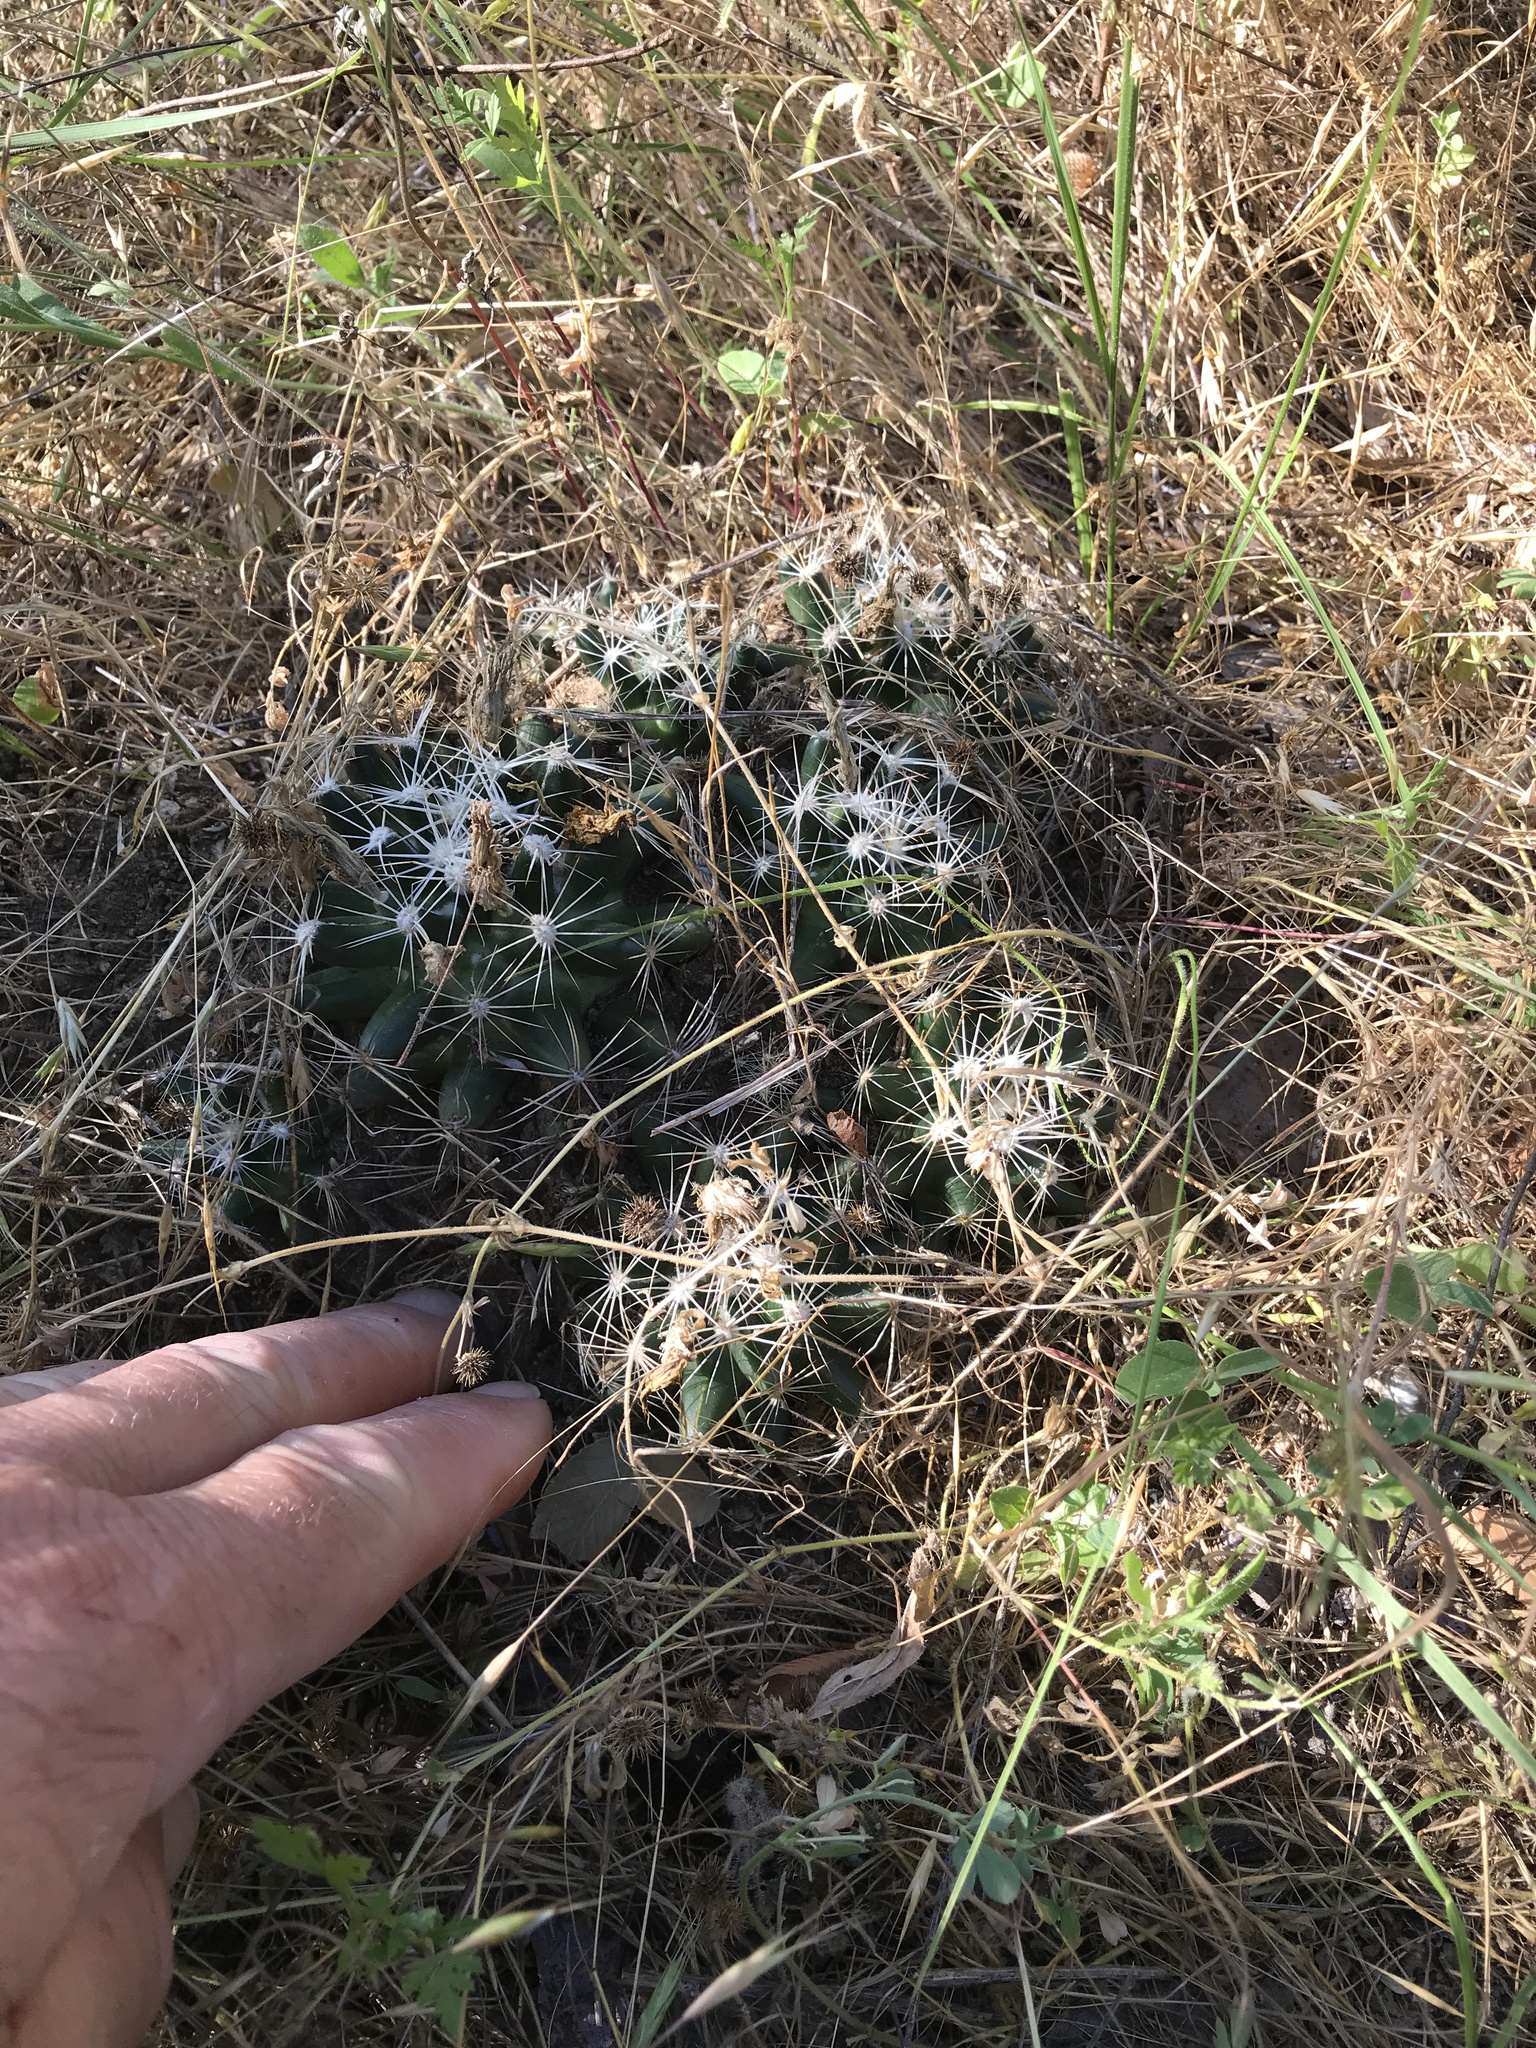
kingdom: Plantae
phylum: Tracheophyta
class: Magnoliopsida
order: Caryophyllales
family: Cactaceae
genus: Pelecyphora
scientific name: Pelecyphora missouriensis
